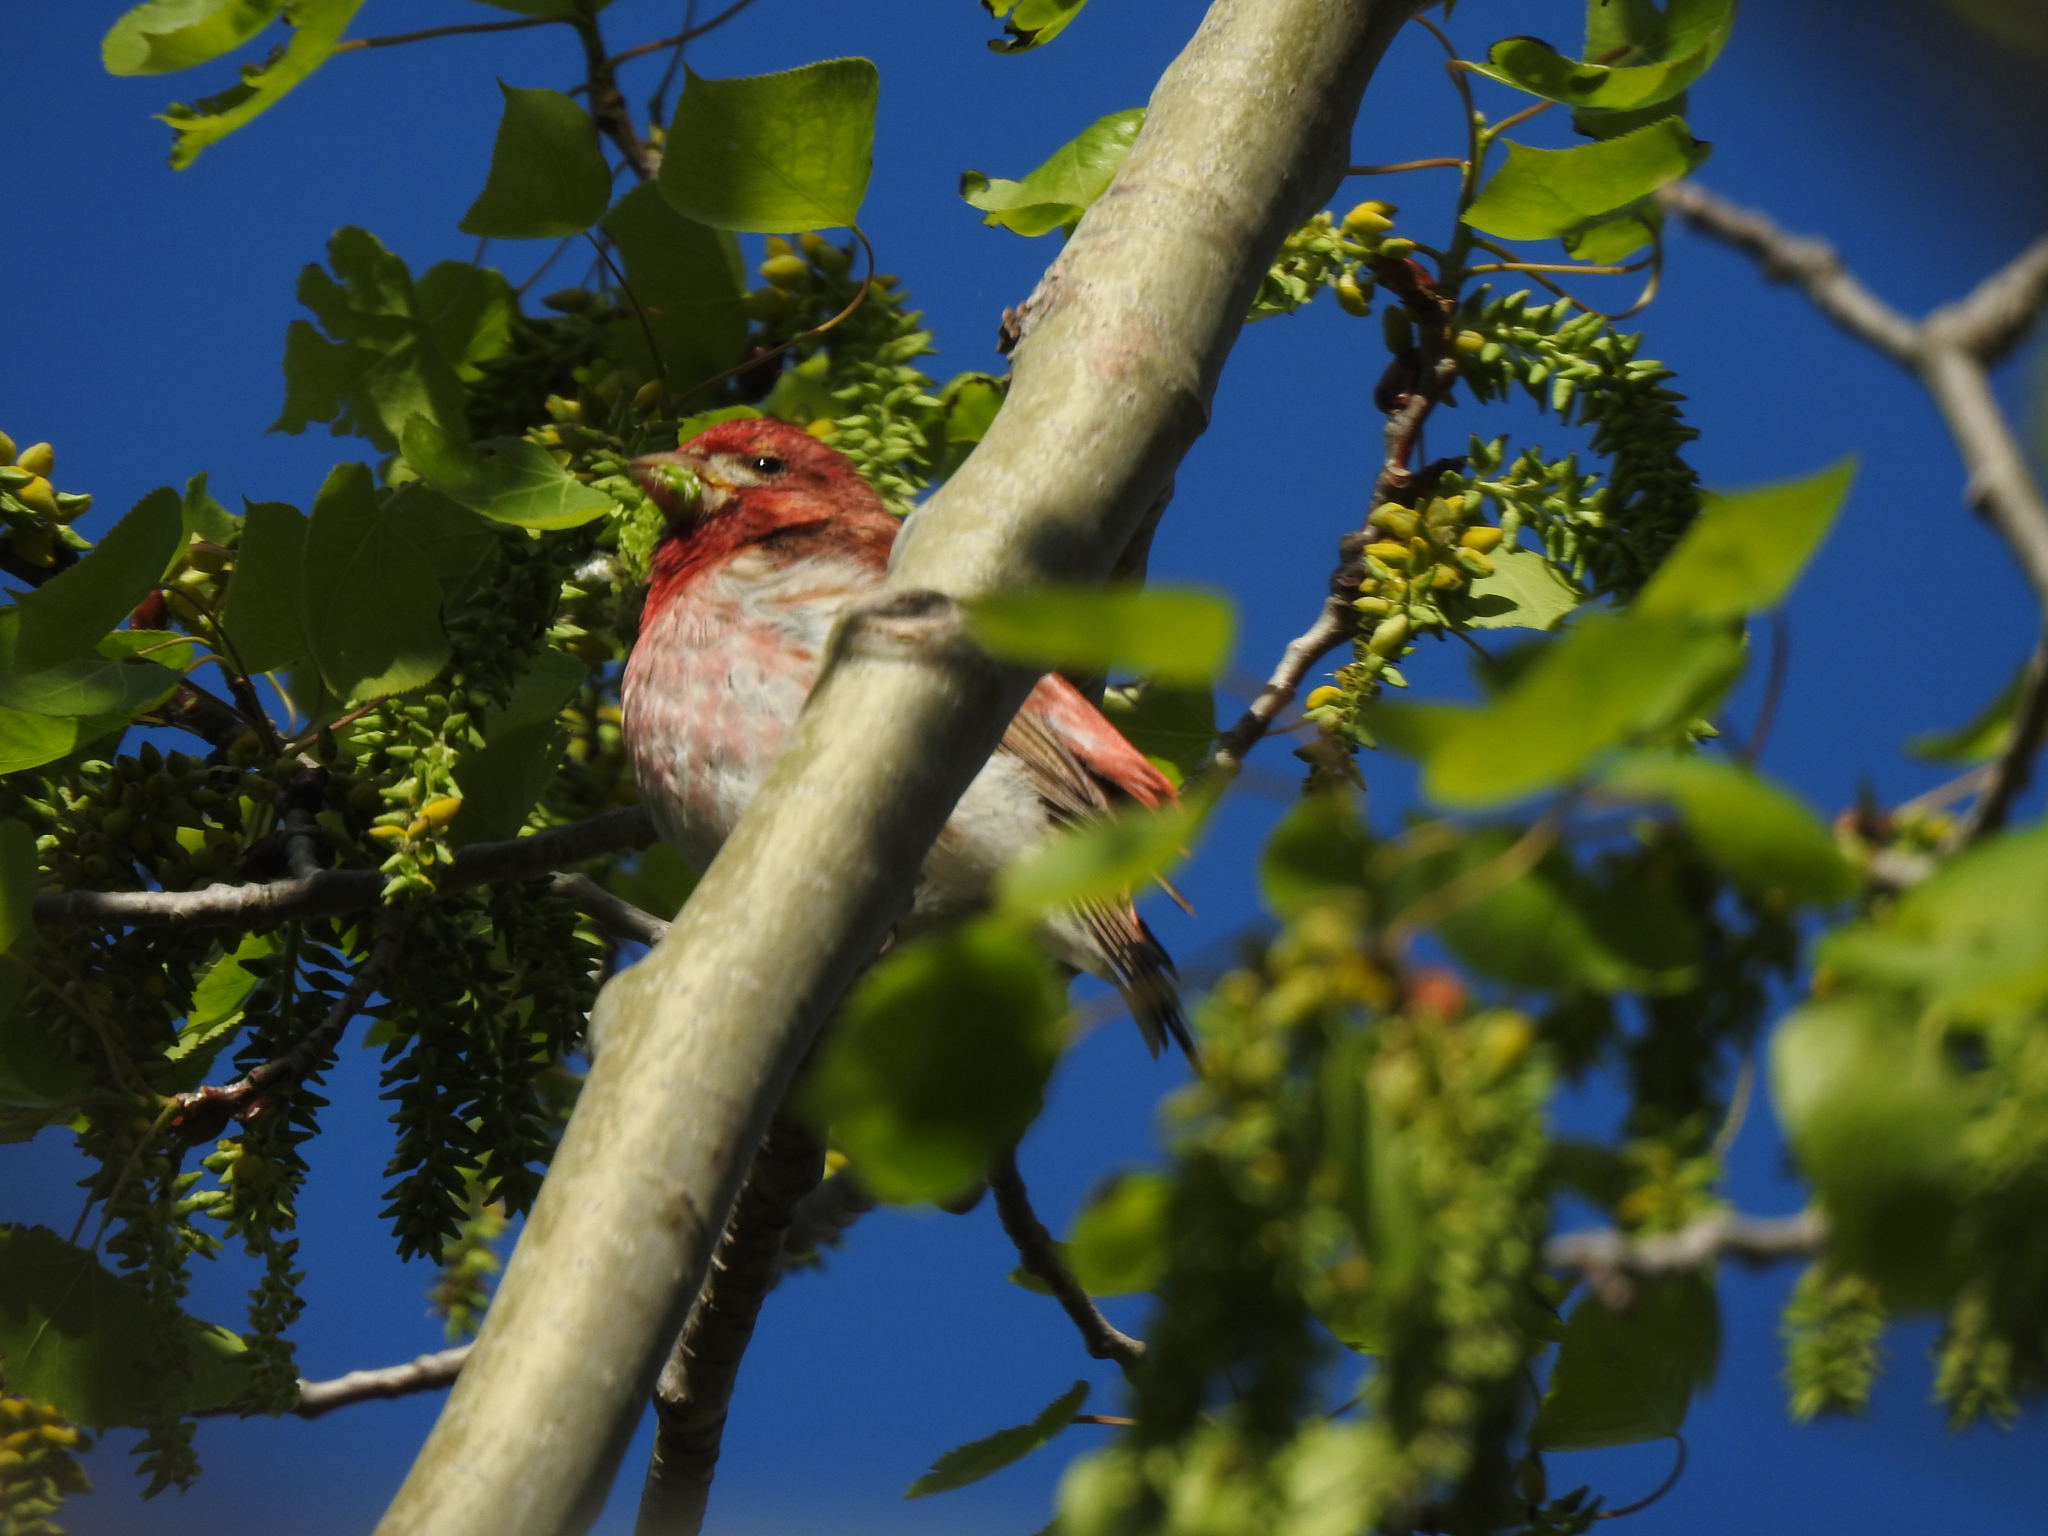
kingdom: Animalia
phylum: Chordata
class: Aves
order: Passeriformes
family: Fringillidae
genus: Haemorhous
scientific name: Haemorhous purpureus
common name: Purple finch
